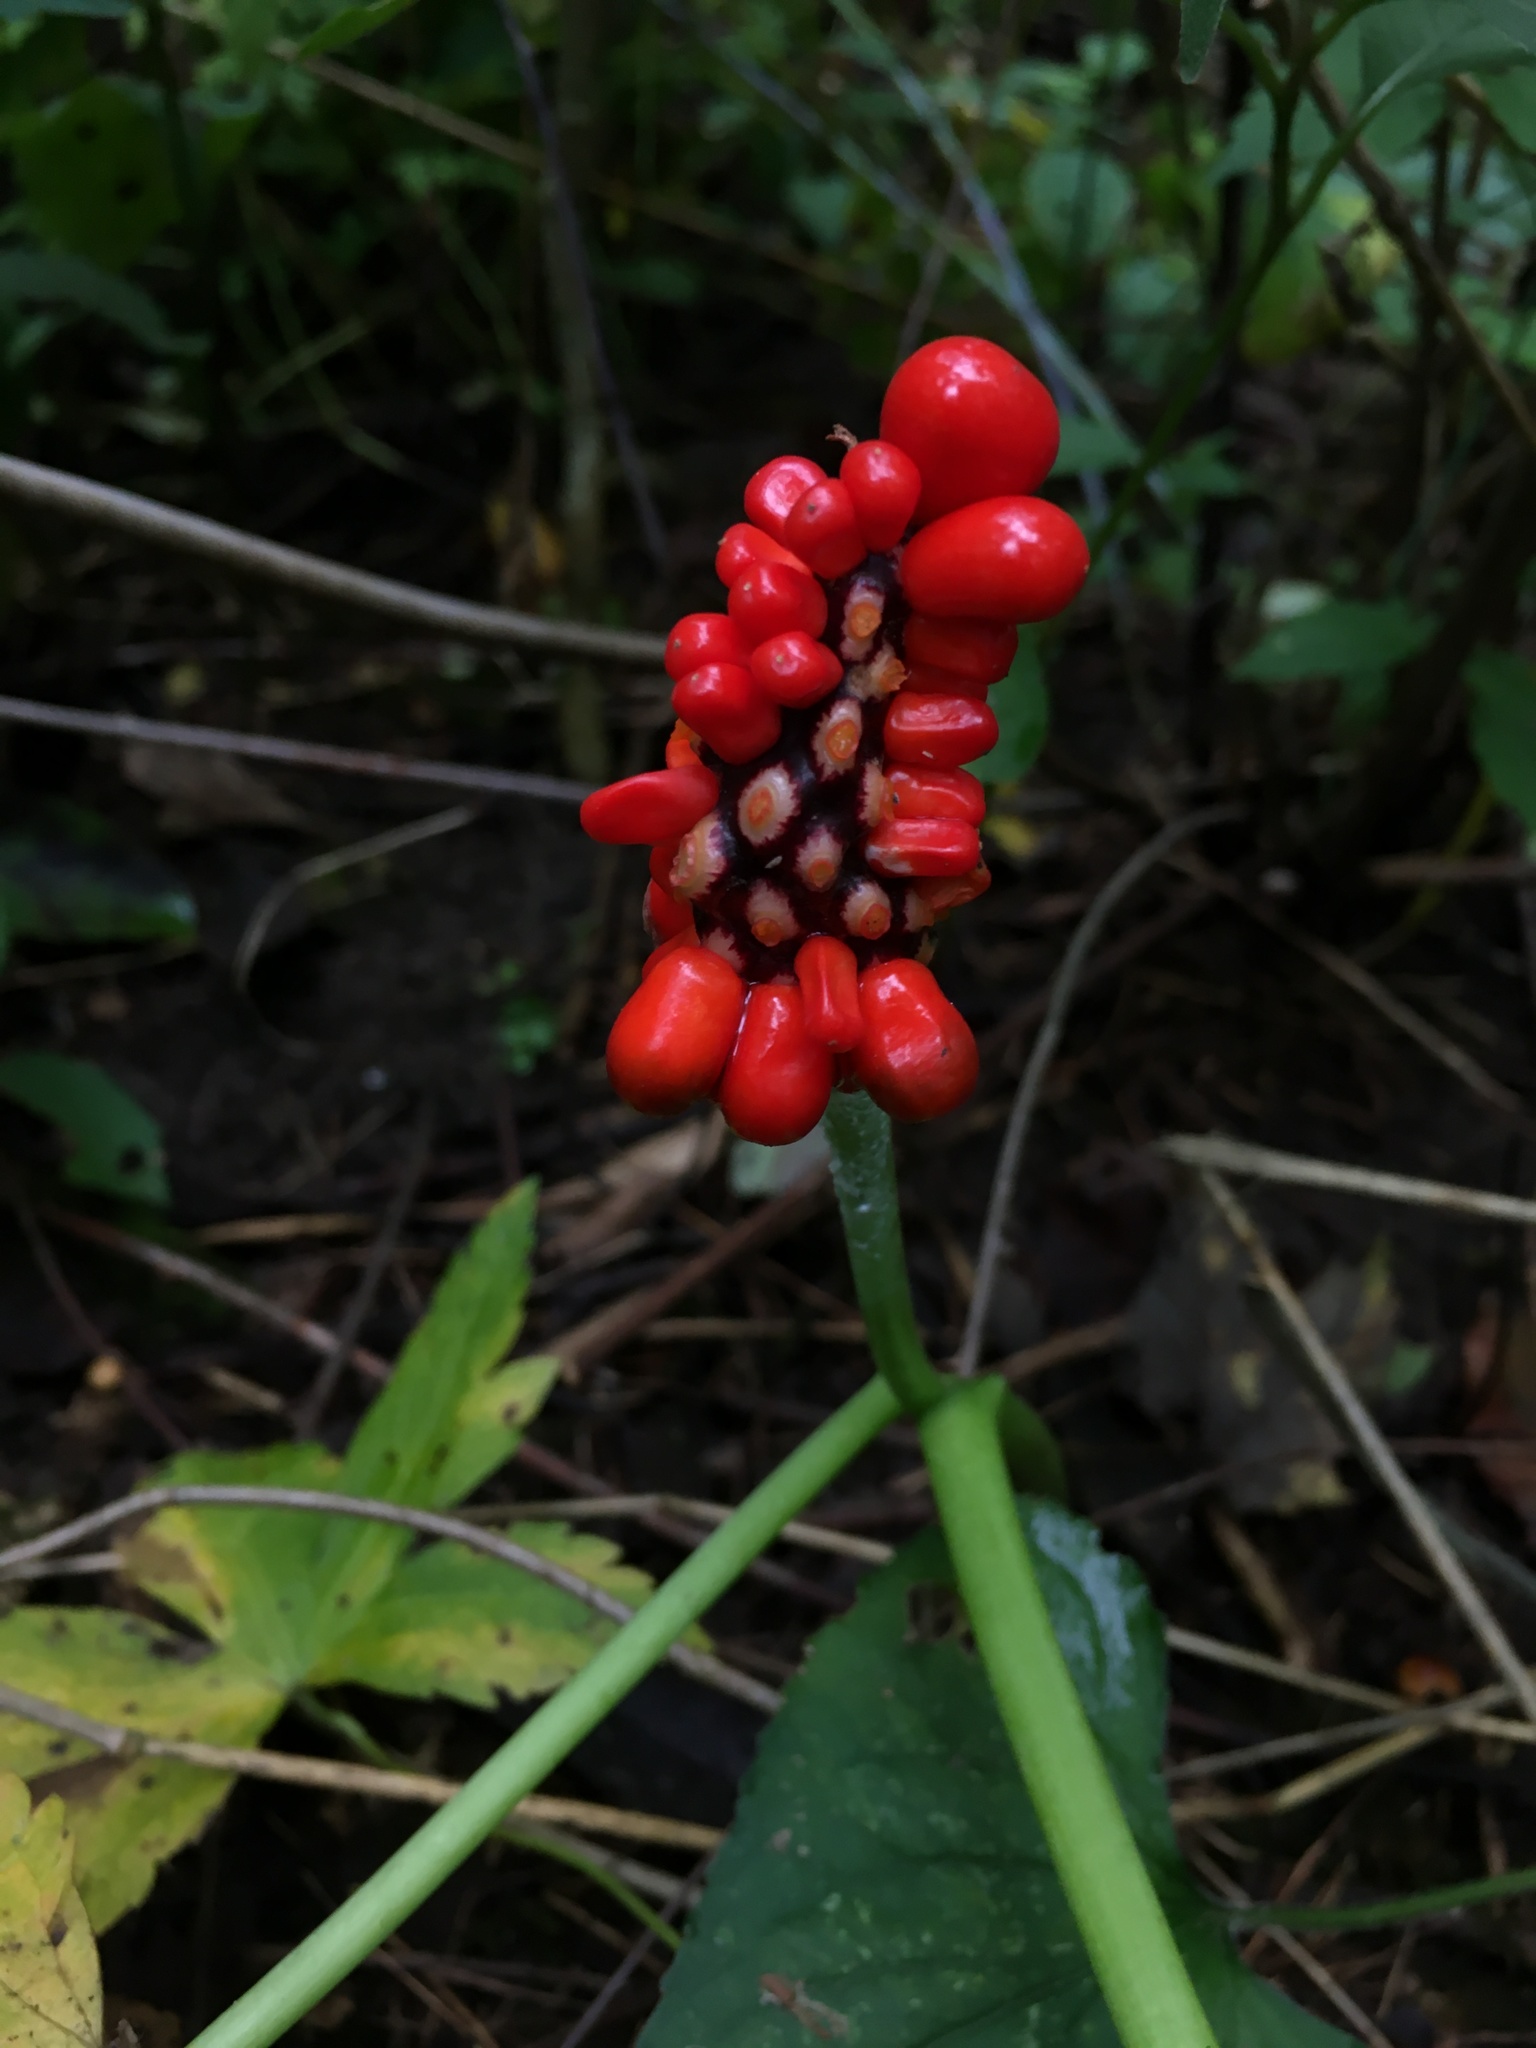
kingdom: Plantae
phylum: Tracheophyta
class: Liliopsida
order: Alismatales
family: Araceae
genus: Arisaema
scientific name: Arisaema triphyllum
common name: Jack-in-the-pulpit
